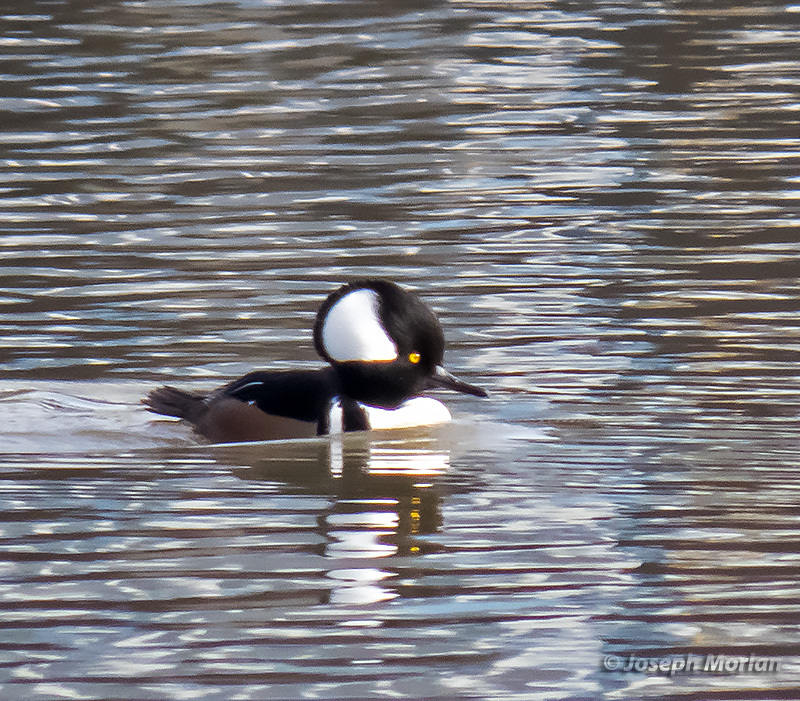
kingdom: Animalia
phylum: Chordata
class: Aves
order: Anseriformes
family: Anatidae
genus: Lophodytes
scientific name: Lophodytes cucullatus
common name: Hooded merganser
